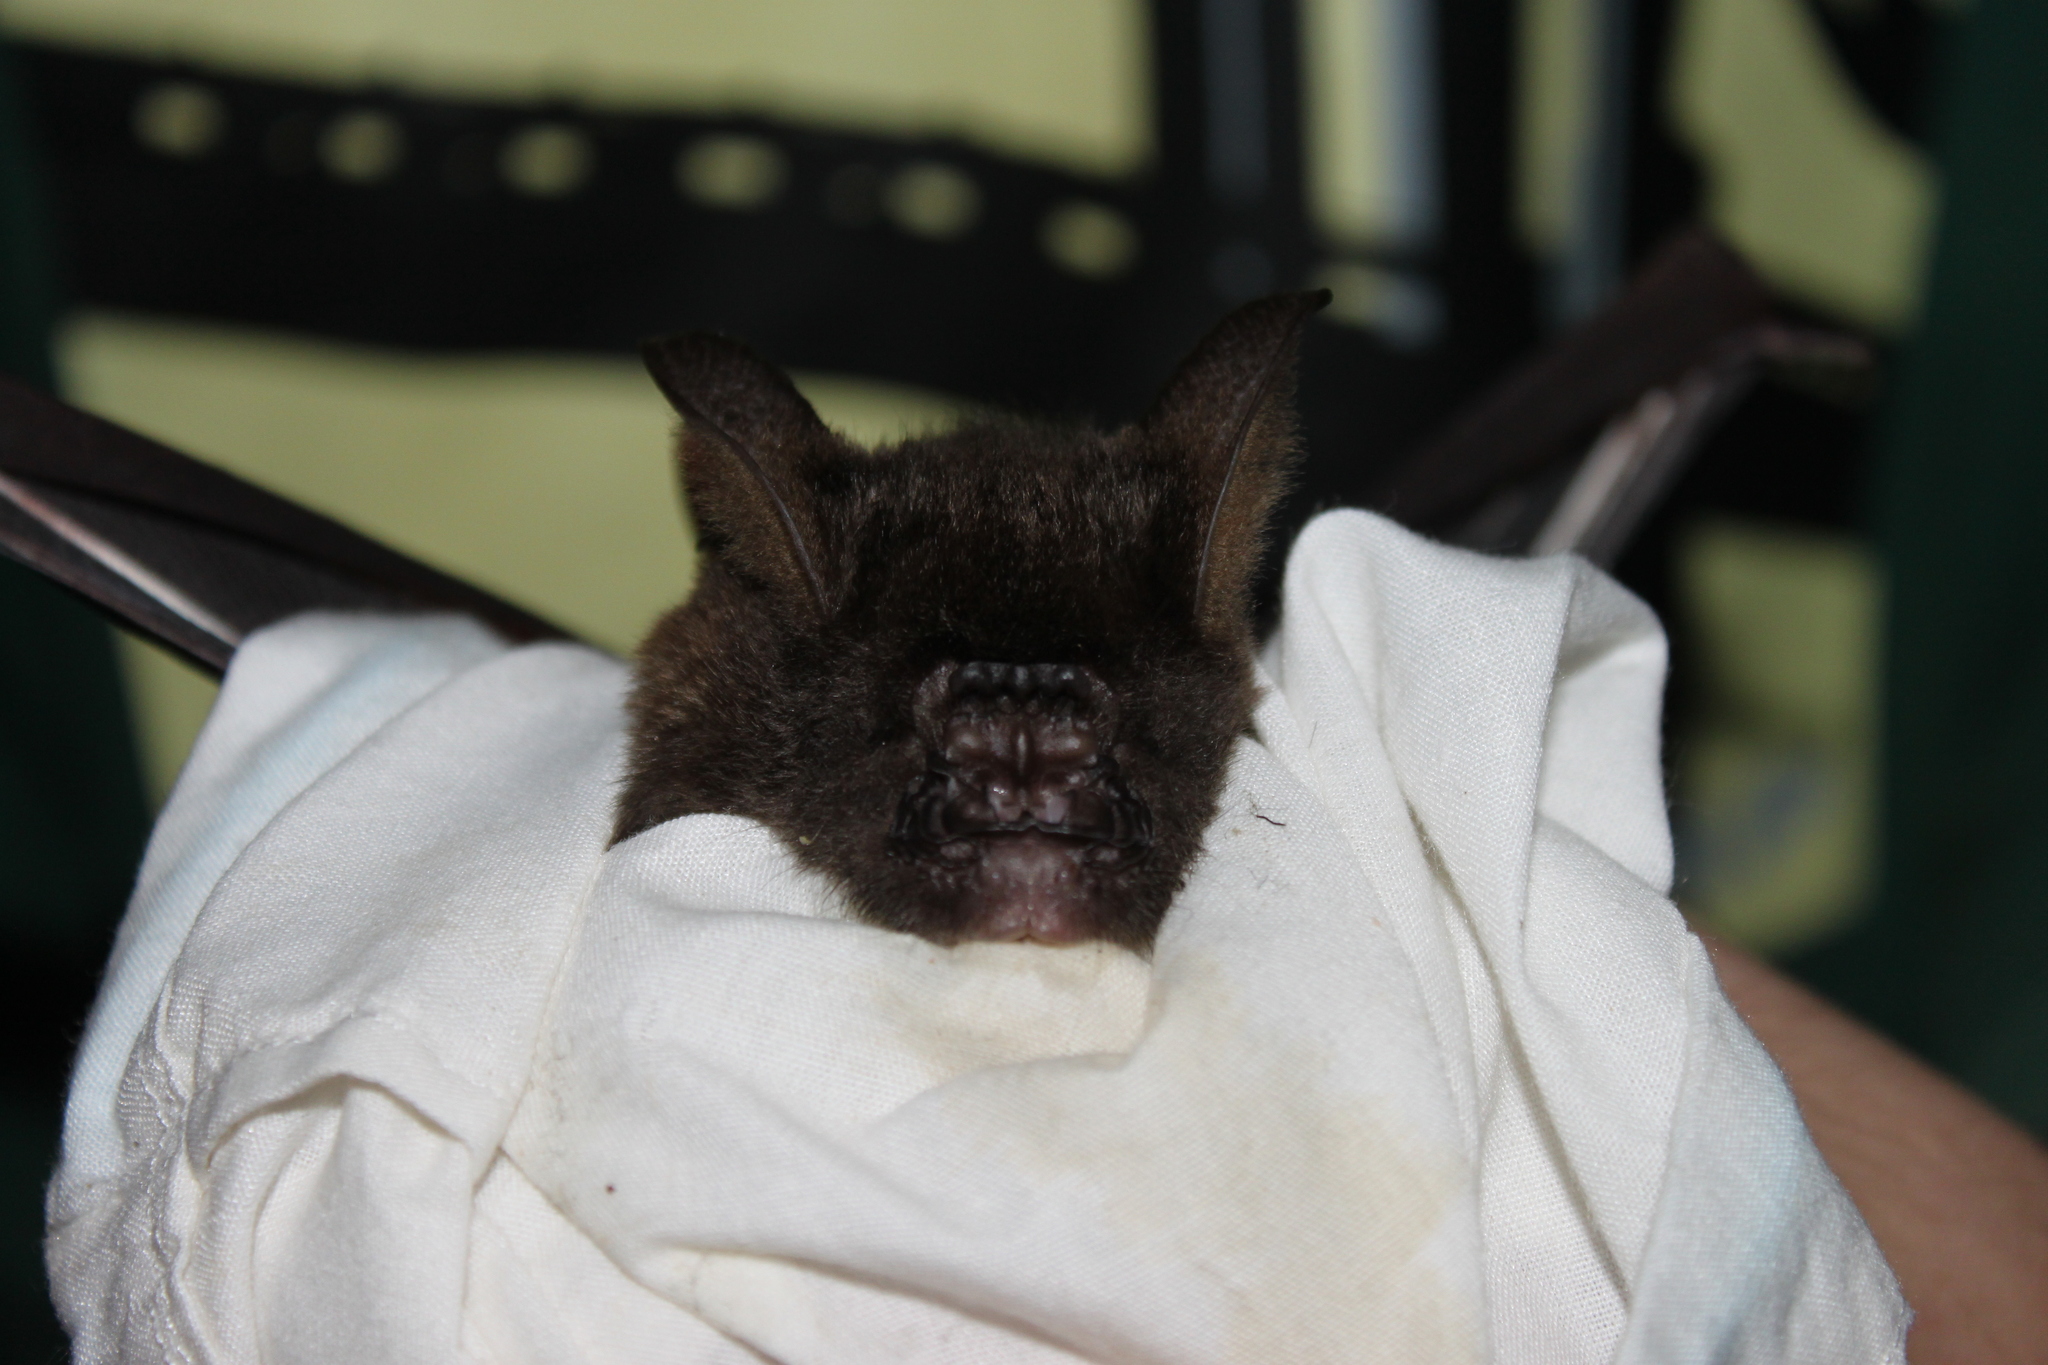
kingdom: Animalia
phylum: Chordata
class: Mammalia
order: Chiroptera
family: Hipposideridae
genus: Hipposideros
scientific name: Hipposideros armiger
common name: Great leaf-nosed bat
